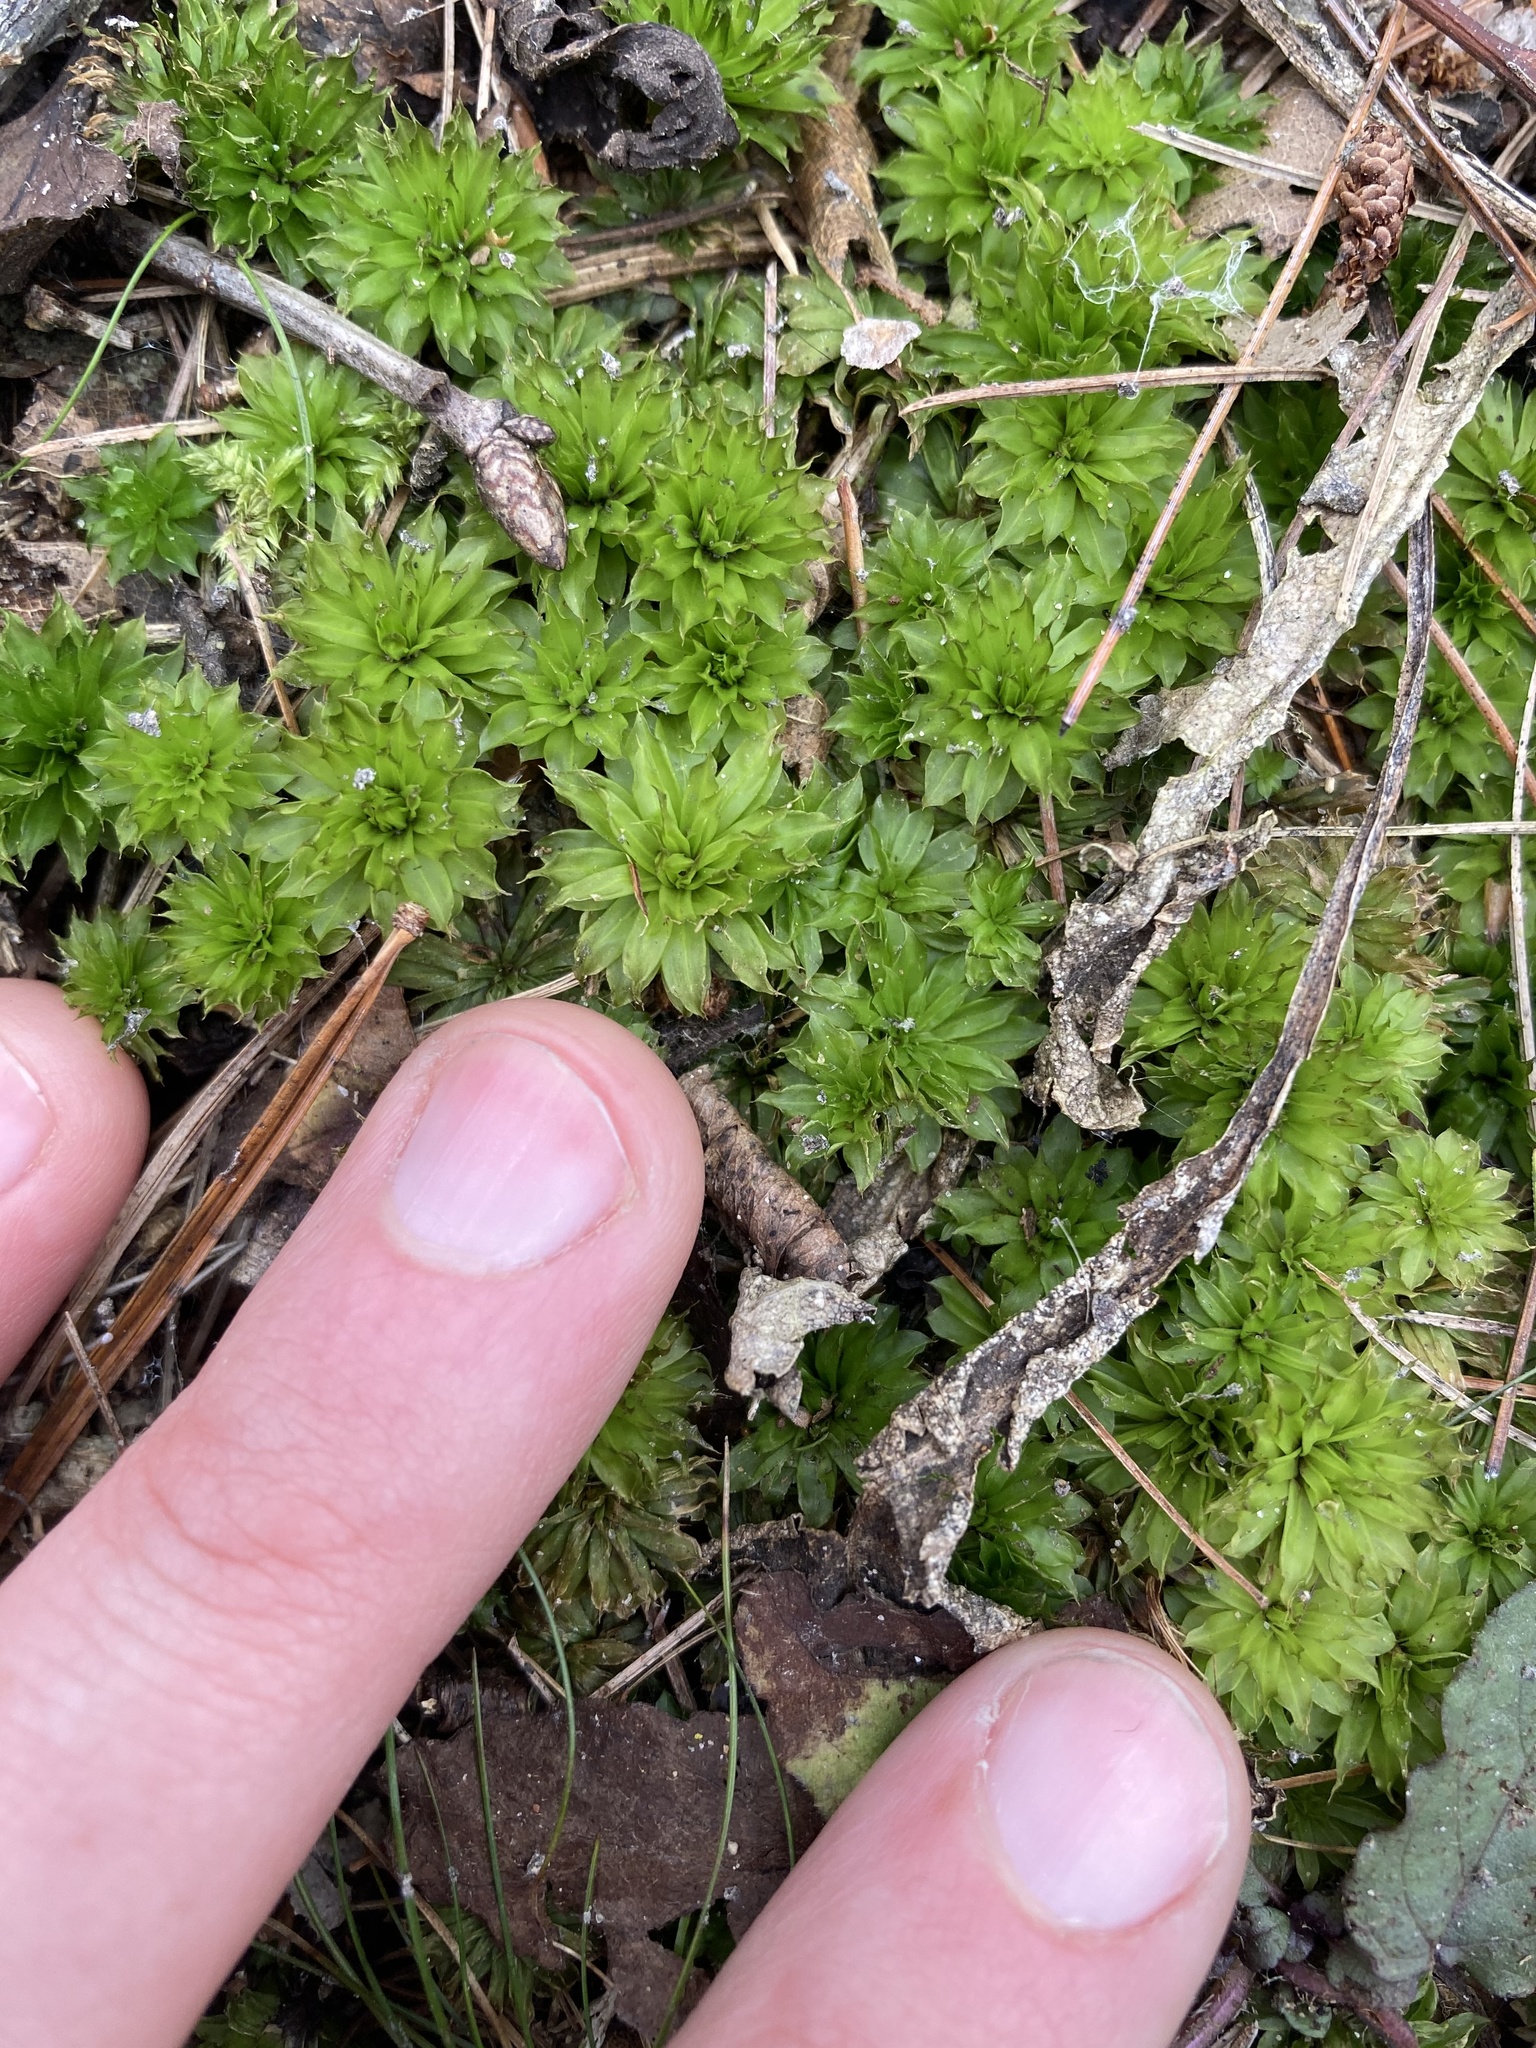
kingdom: Plantae
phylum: Bryophyta
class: Bryopsida
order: Bryales
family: Bryaceae
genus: Rhodobryum
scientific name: Rhodobryum ontariense
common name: Ontario rhodobryum moss
